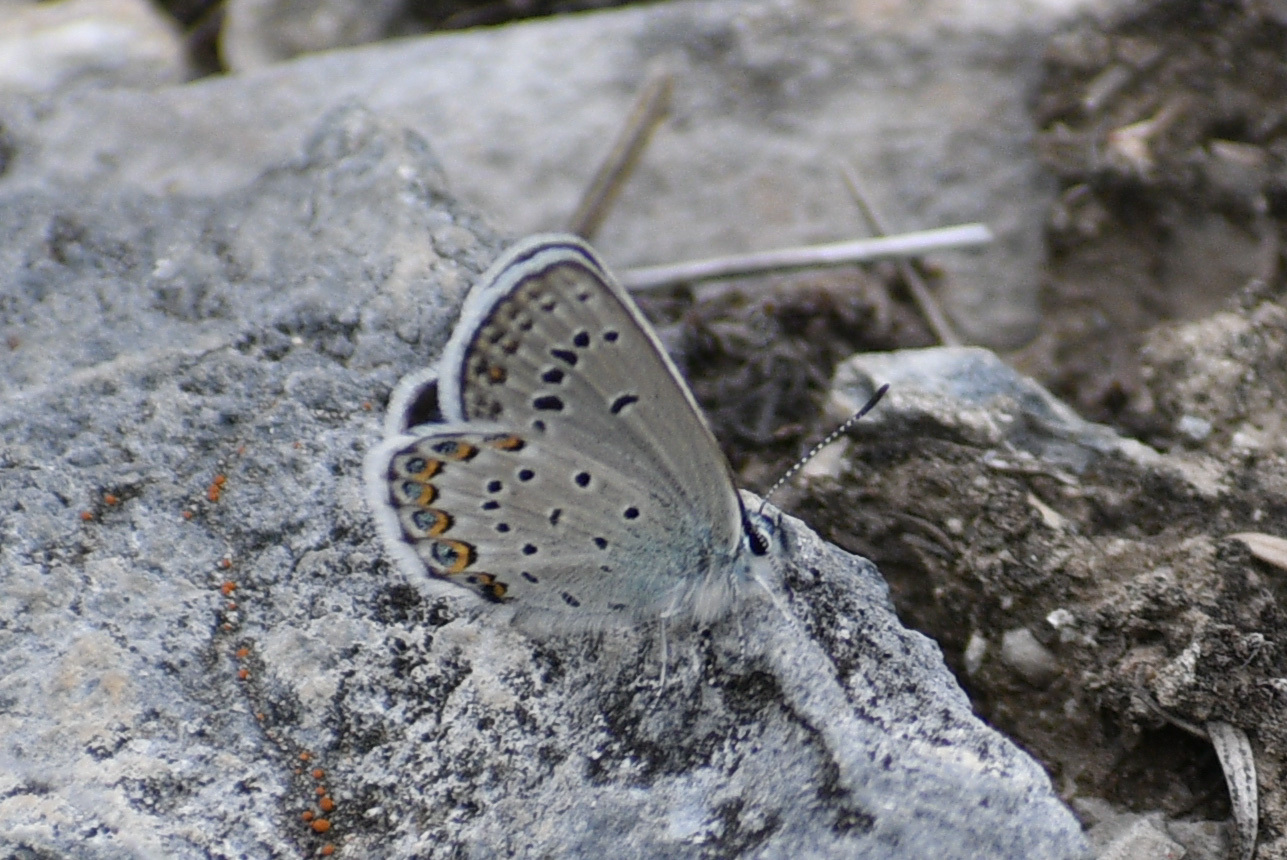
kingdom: Animalia
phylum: Arthropoda
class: Insecta
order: Lepidoptera
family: Lycaenidae
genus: Lycaeides
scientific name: Lycaeides idas
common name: Northern blue
